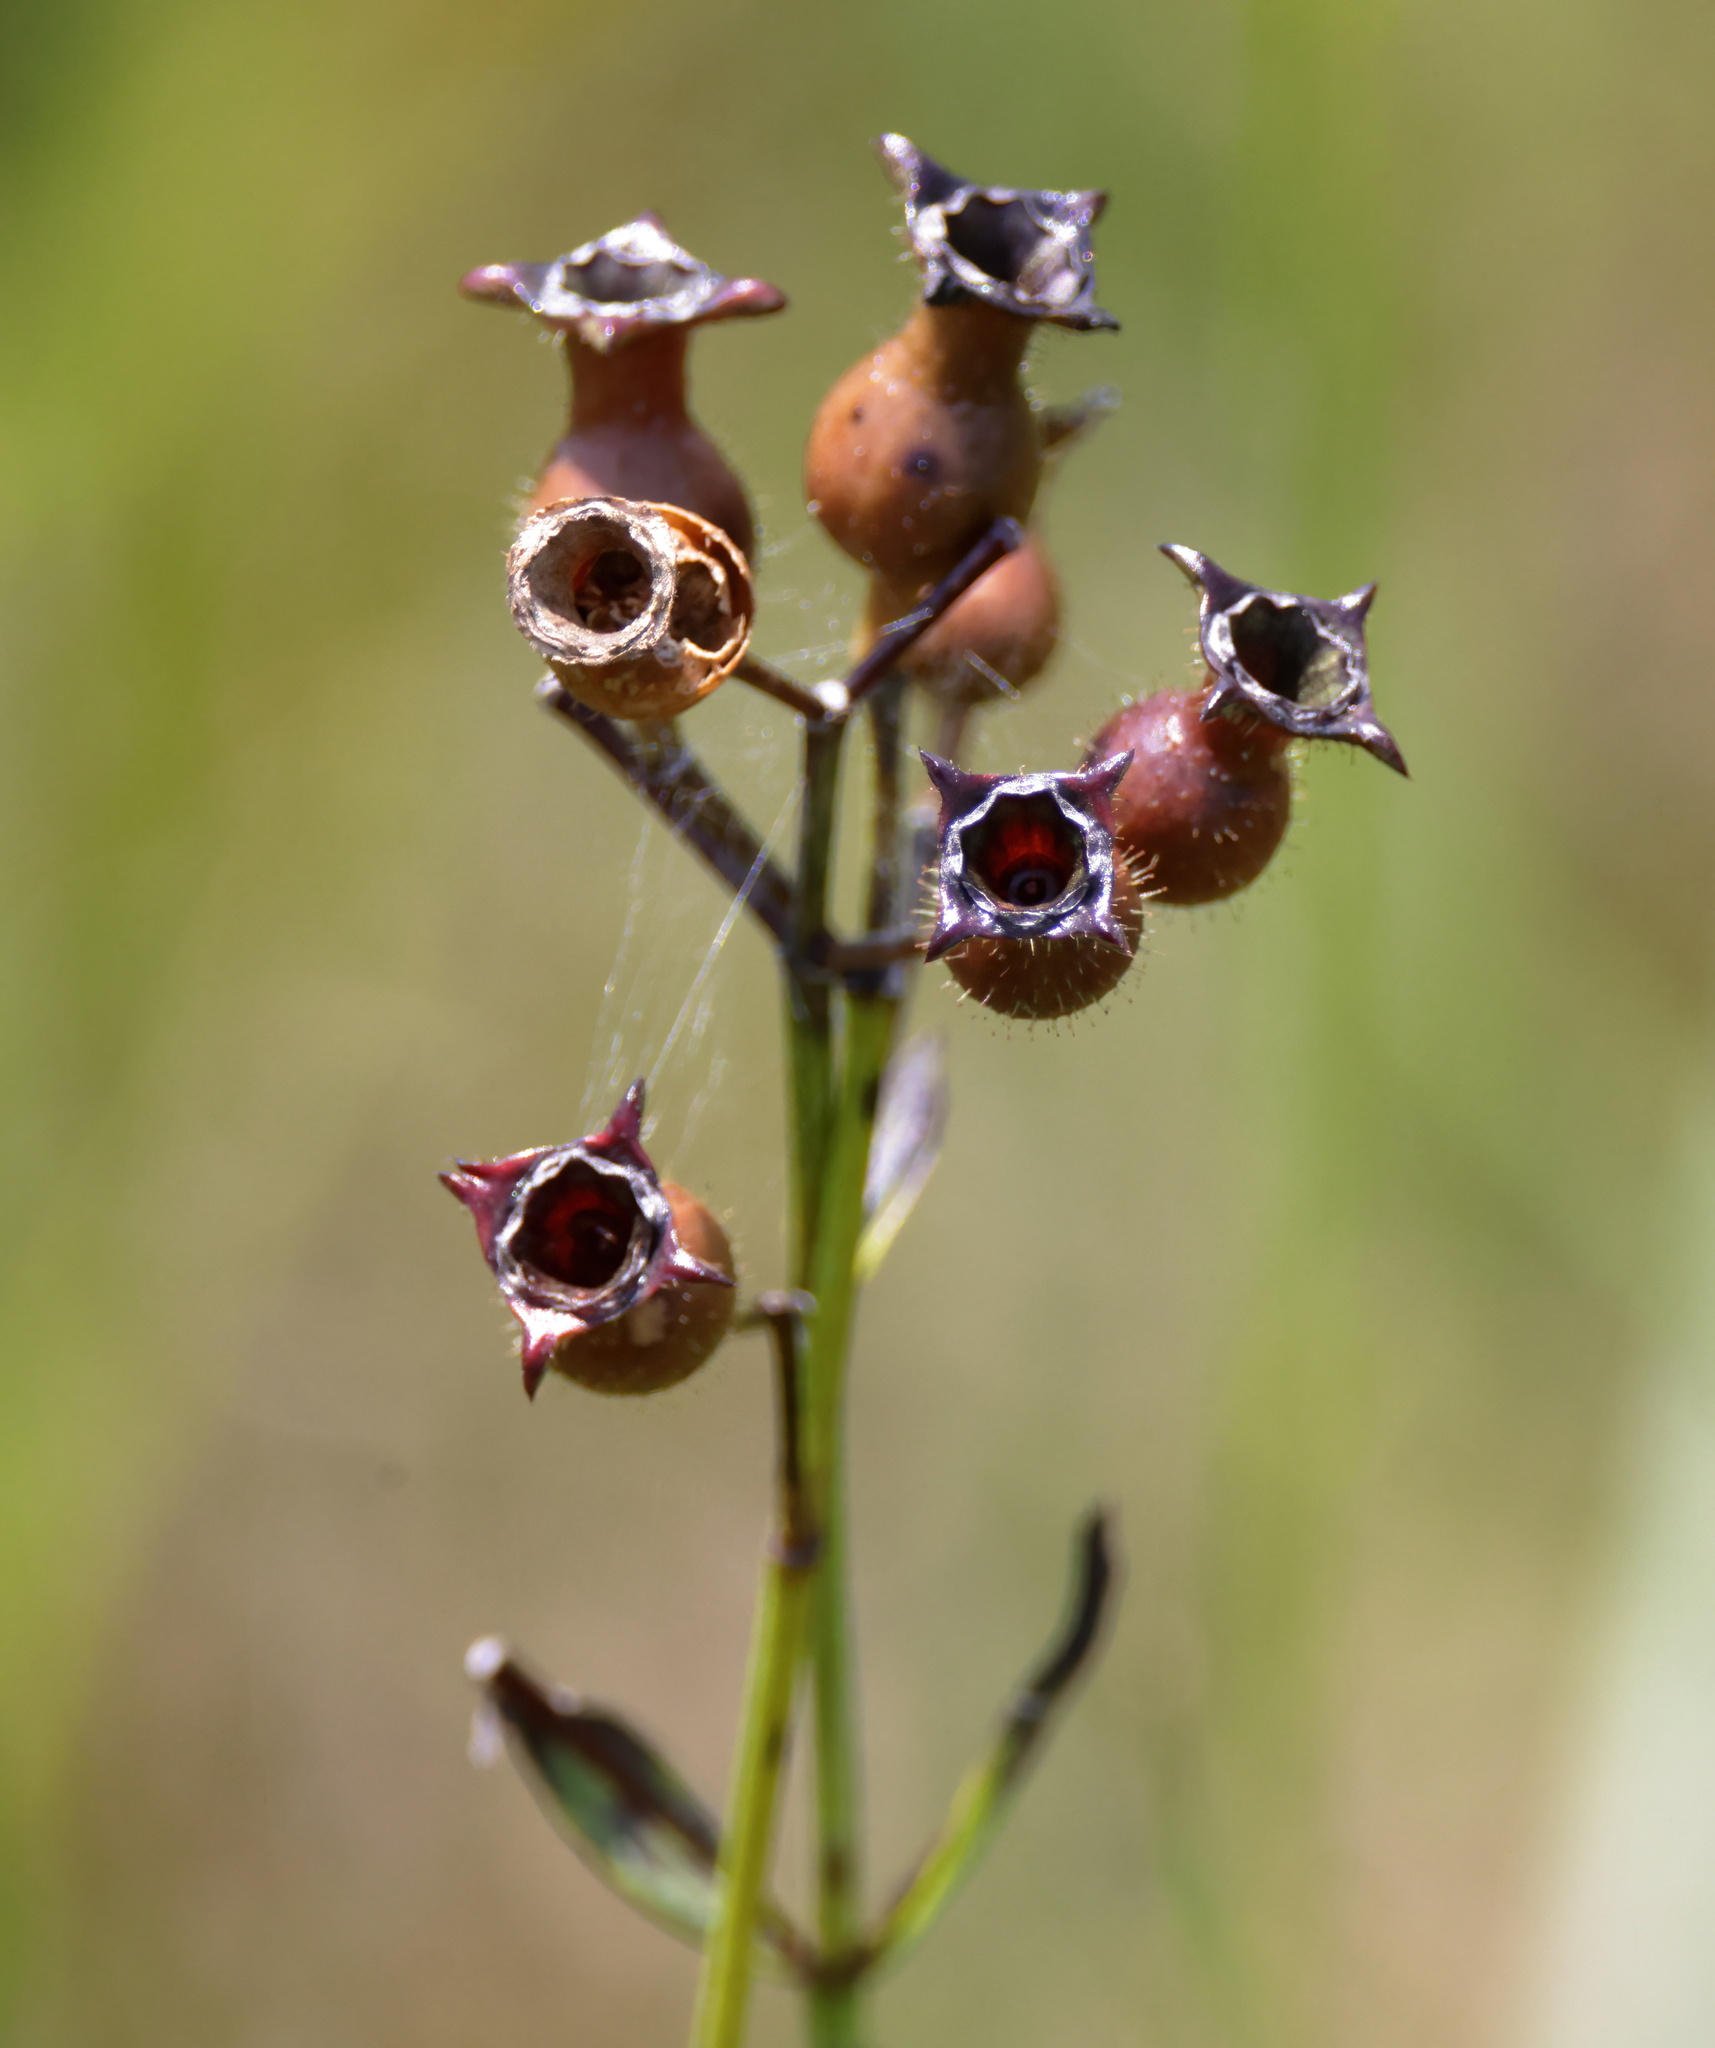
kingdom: Plantae
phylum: Tracheophyta
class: Magnoliopsida
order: Myrtales
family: Melastomataceae
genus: Rhexia
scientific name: Rhexia alifanus
